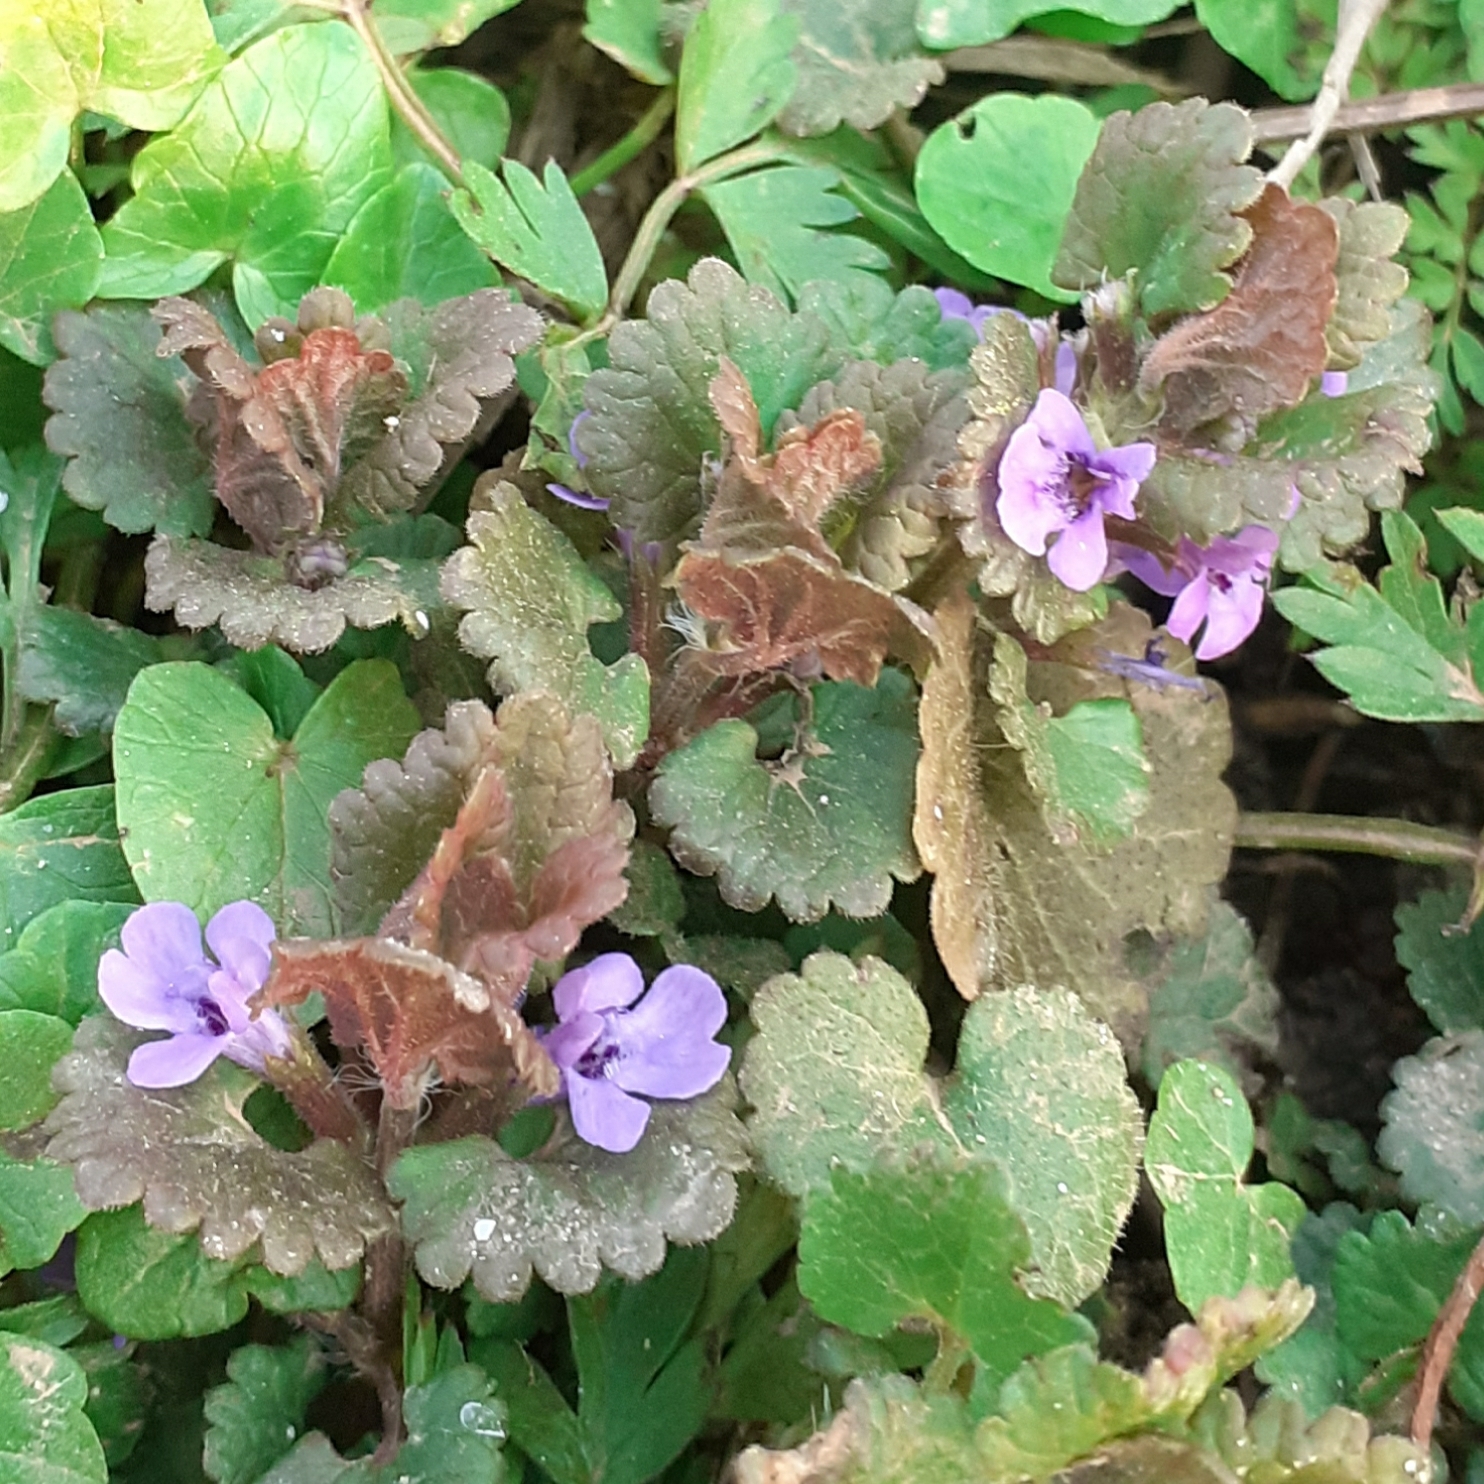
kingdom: Plantae
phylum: Tracheophyta
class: Magnoliopsida
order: Lamiales
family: Lamiaceae
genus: Glechoma
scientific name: Glechoma hederacea
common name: Ground ivy
